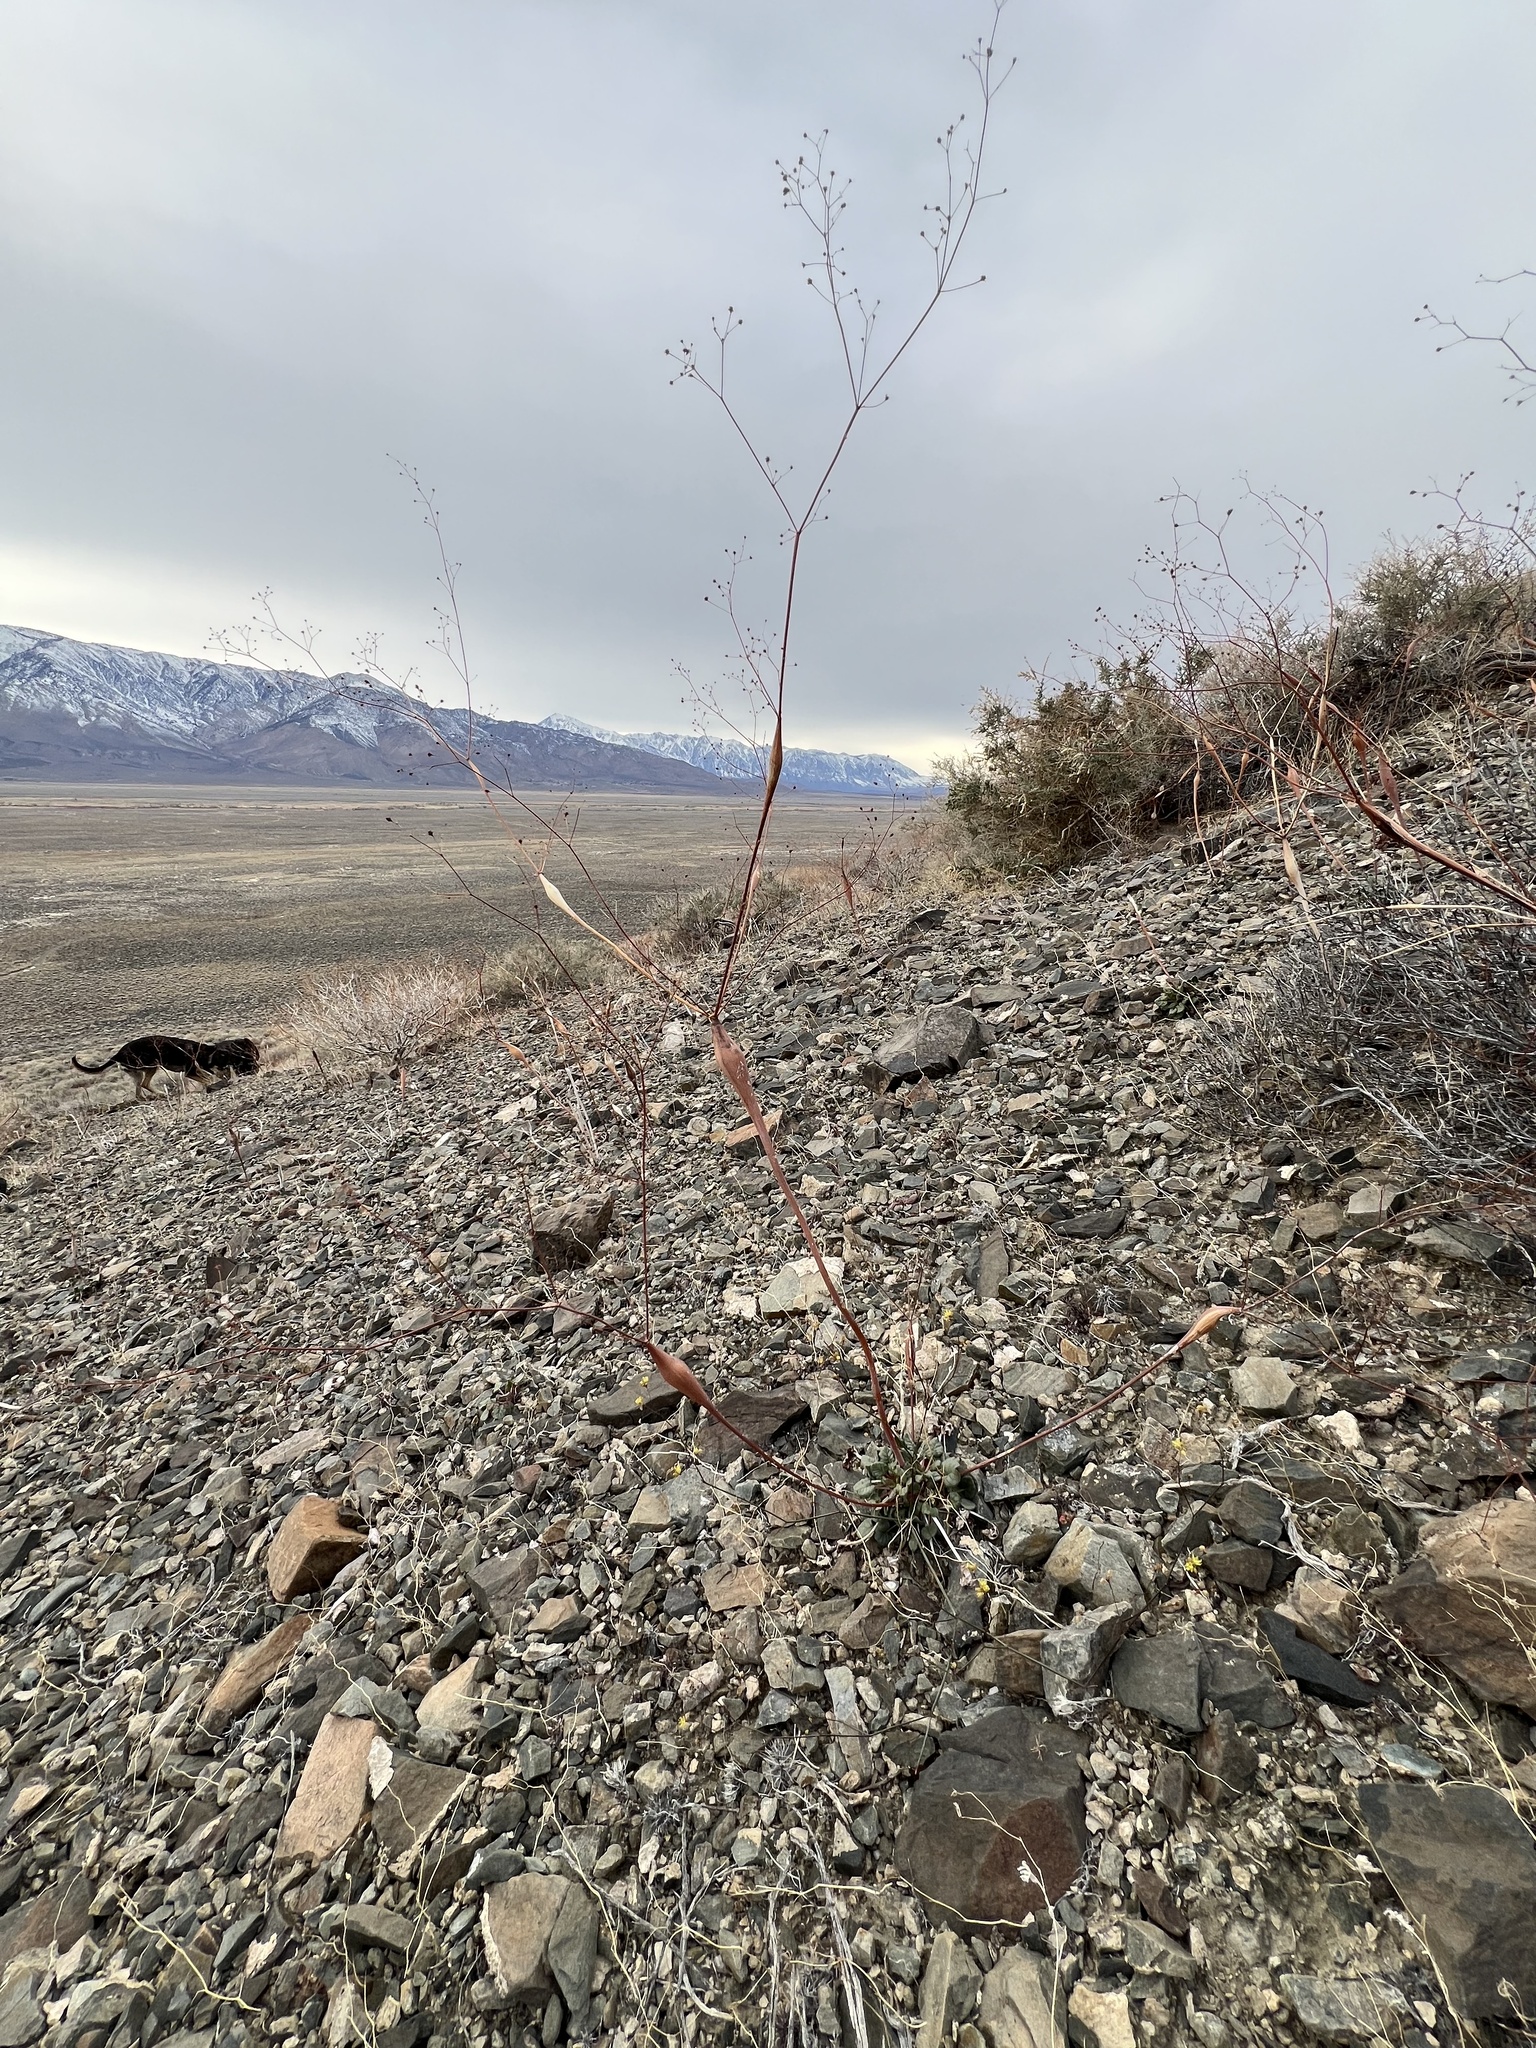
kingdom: Plantae
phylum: Tracheophyta
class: Magnoliopsida
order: Caryophyllales
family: Polygonaceae
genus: Eriogonum
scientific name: Eriogonum inflatum
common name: Desert trumpet
